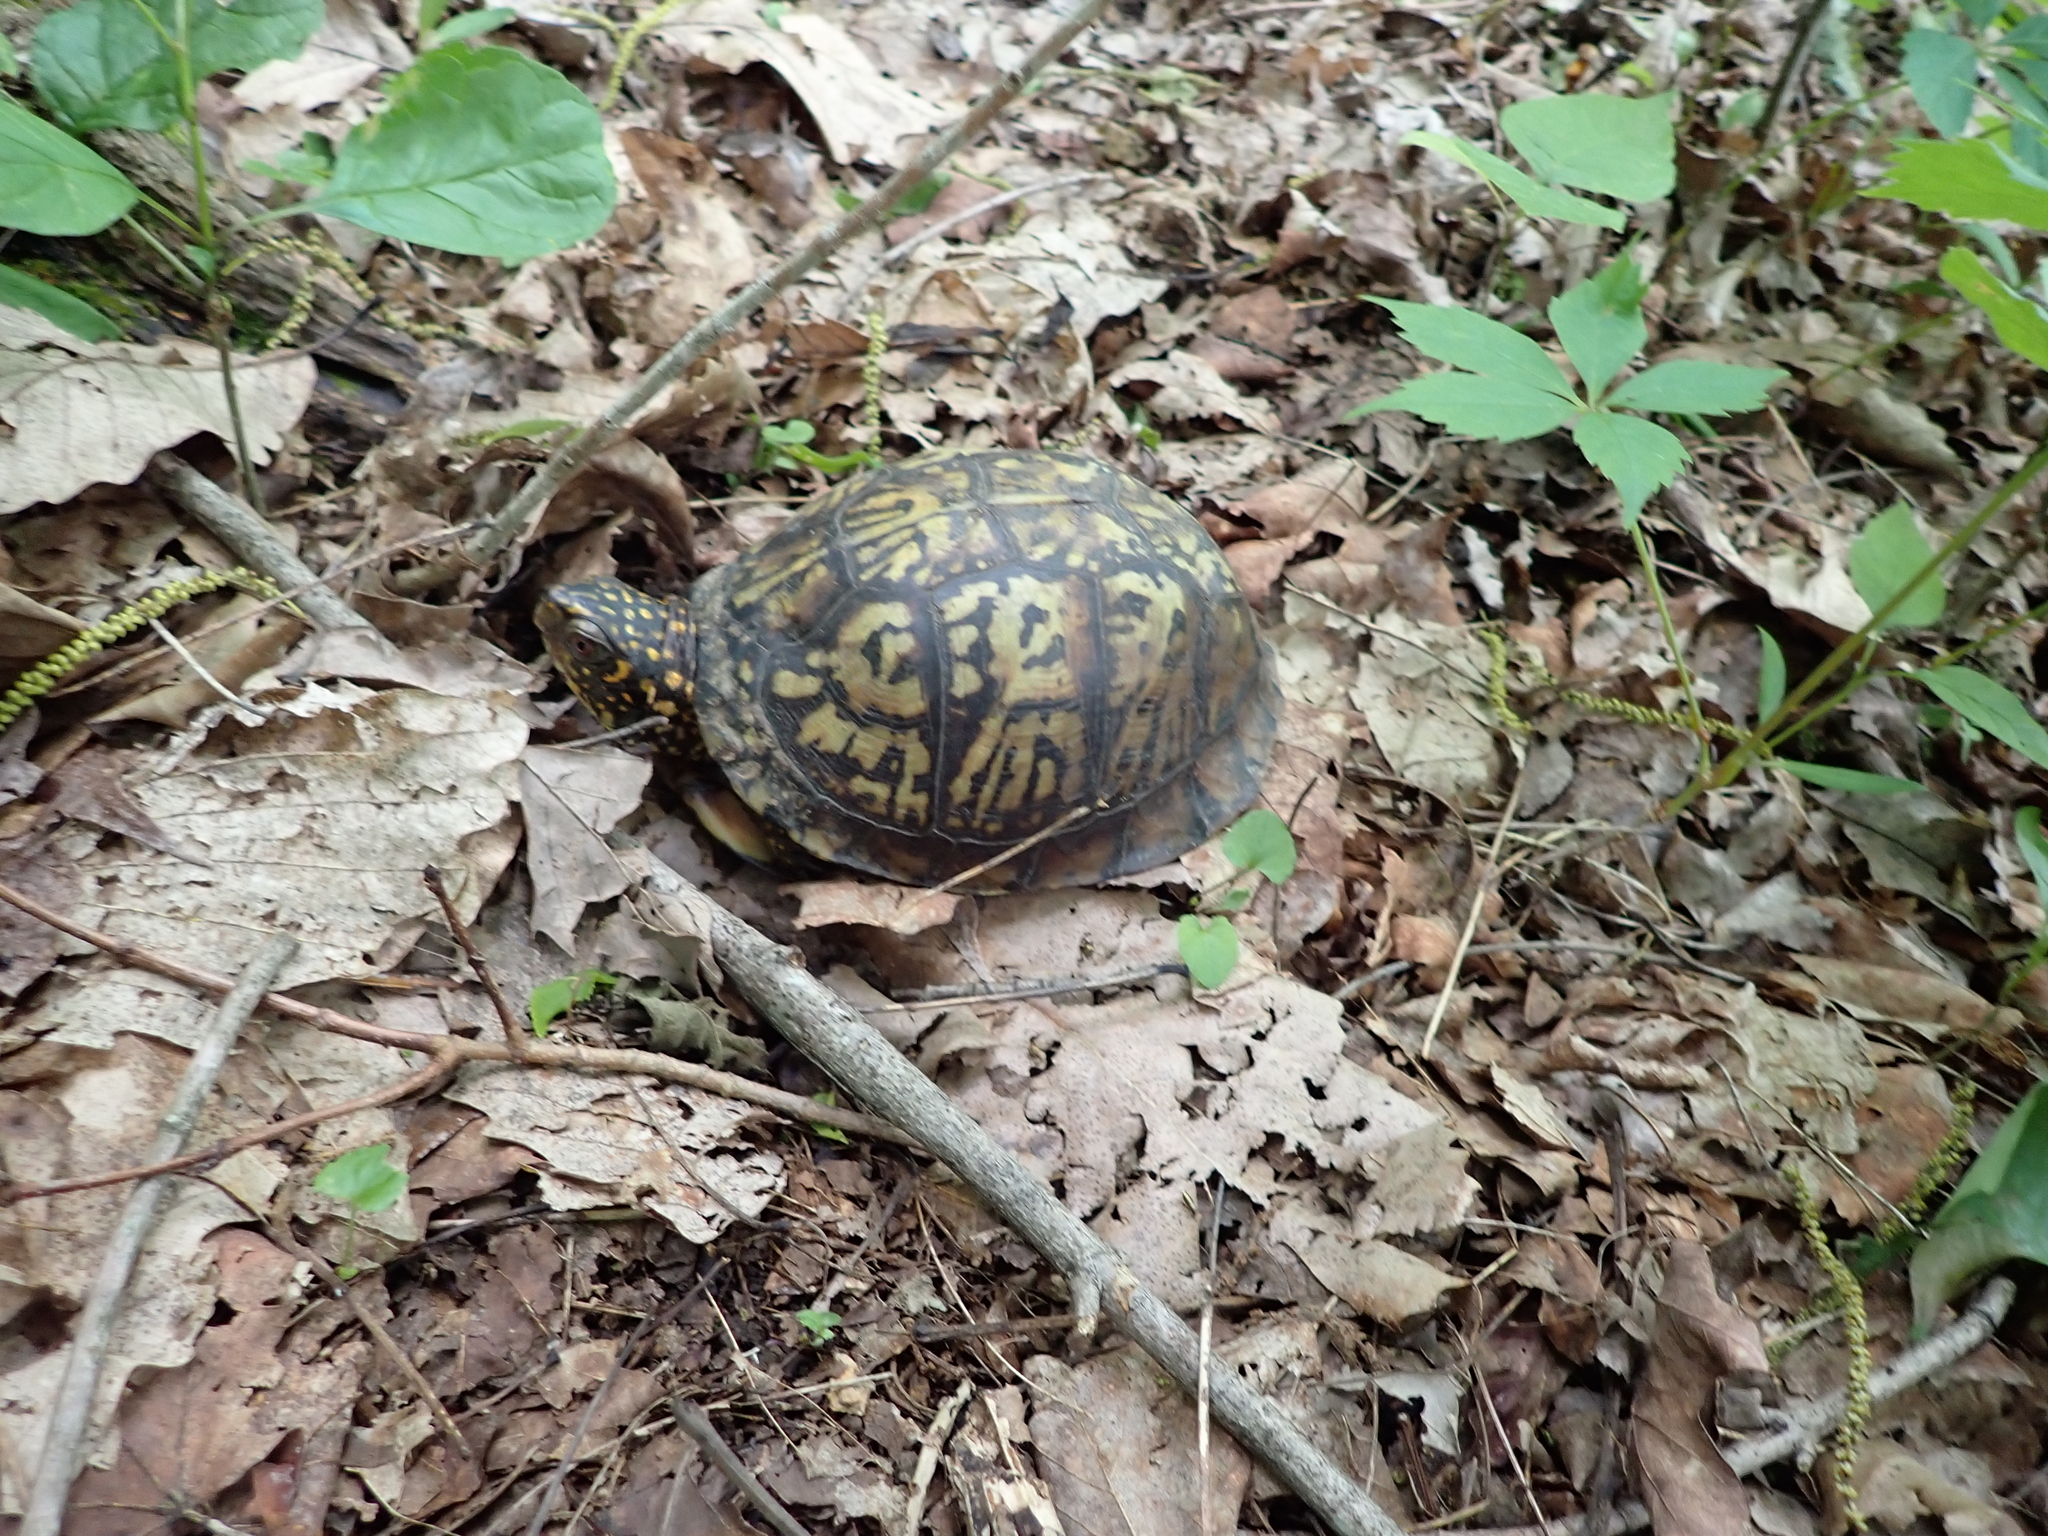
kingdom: Animalia
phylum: Chordata
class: Testudines
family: Emydidae
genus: Terrapene
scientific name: Terrapene carolina
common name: Common box turtle
